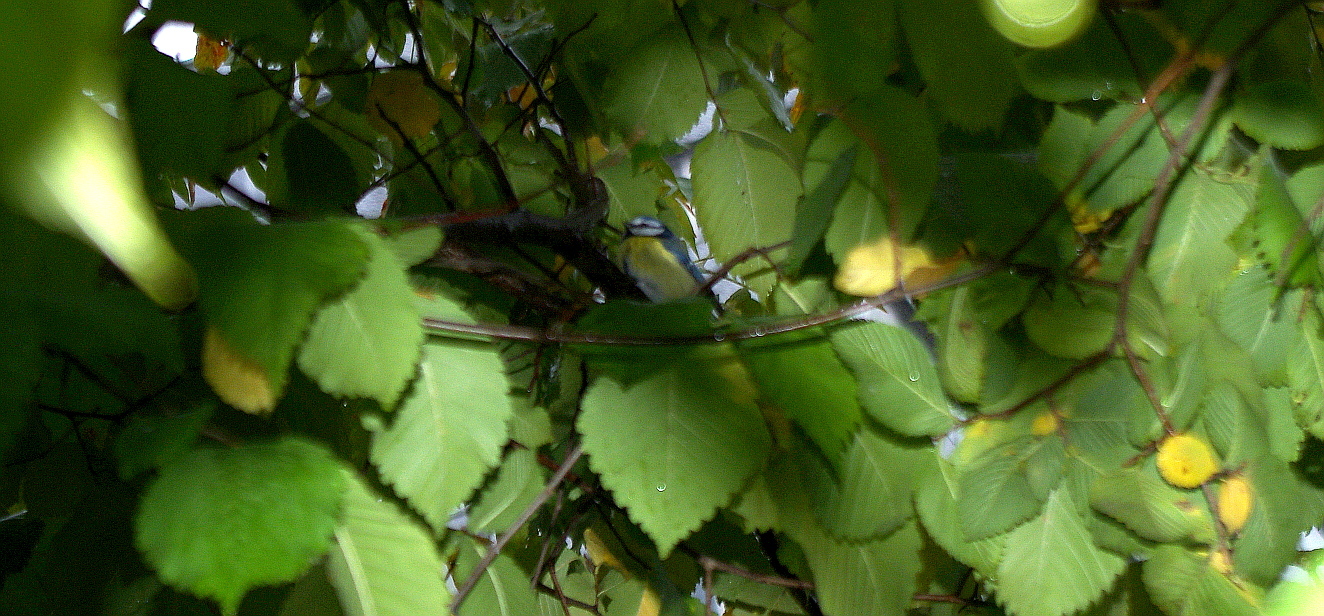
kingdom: Animalia
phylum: Chordata
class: Aves
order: Passeriformes
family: Paridae
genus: Cyanistes
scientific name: Cyanistes caeruleus
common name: Eurasian blue tit
